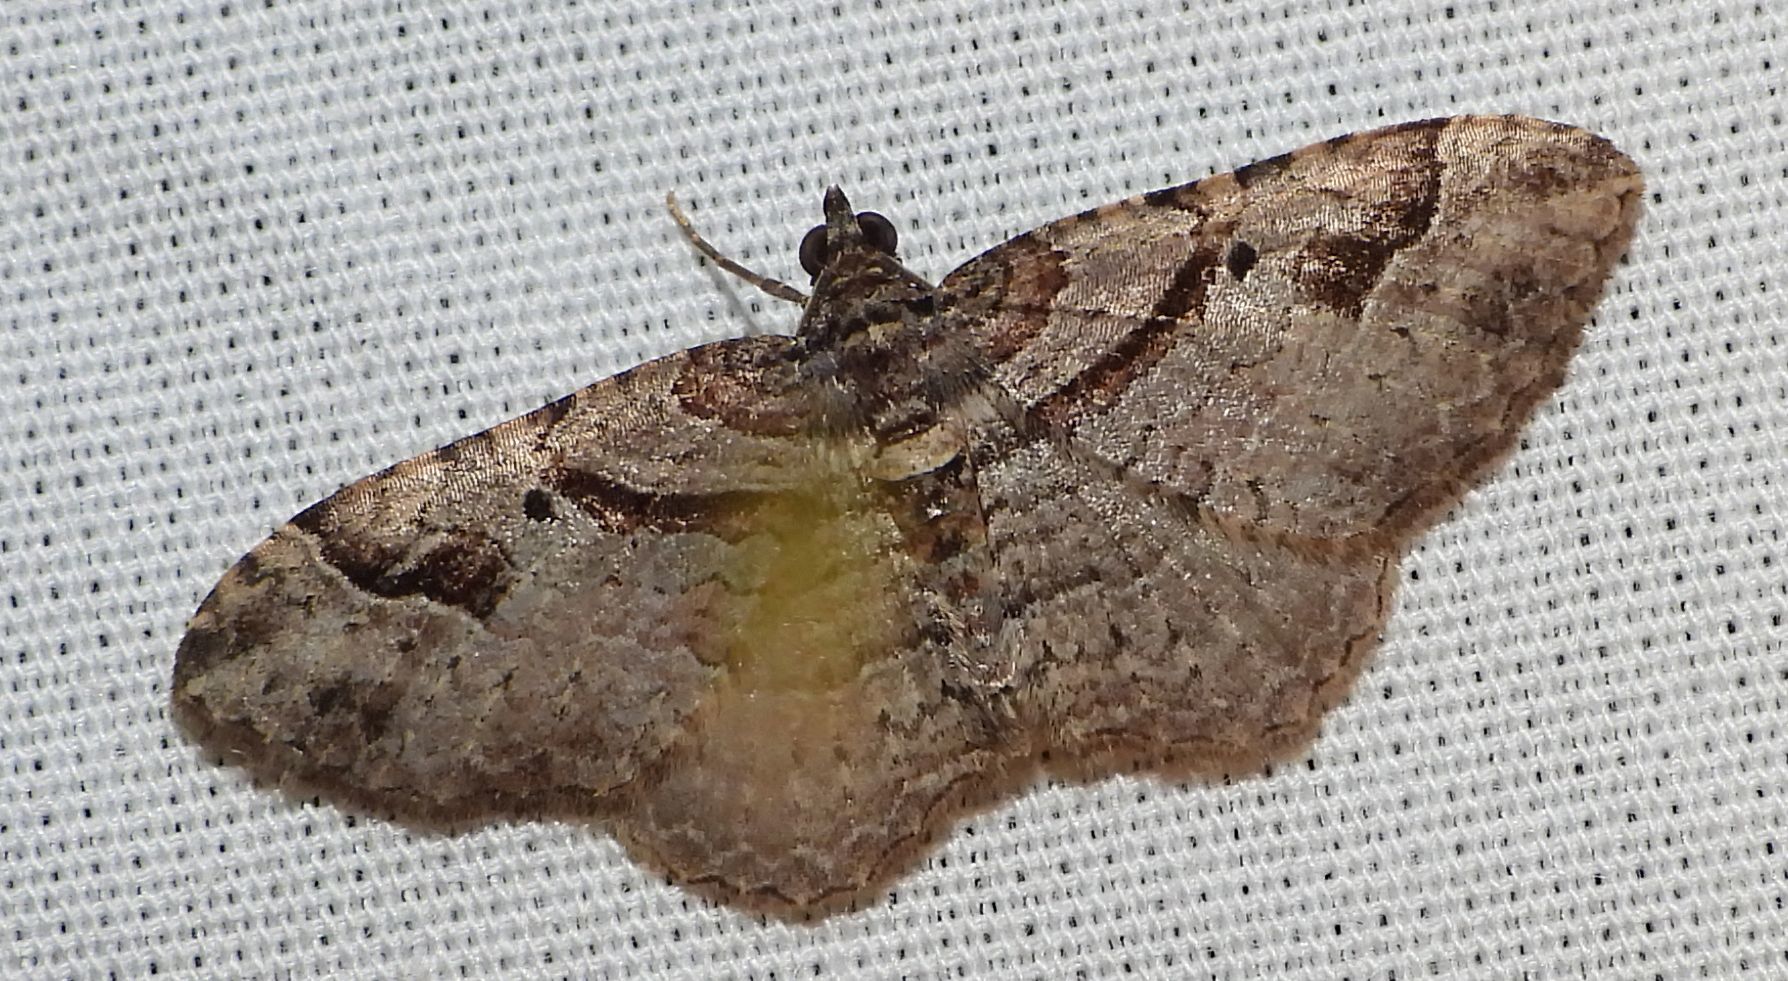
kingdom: Animalia
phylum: Arthropoda
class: Insecta
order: Lepidoptera
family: Geometridae
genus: Costaconvexa
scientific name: Costaconvexa centrostrigaria
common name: Bent-line carpet
